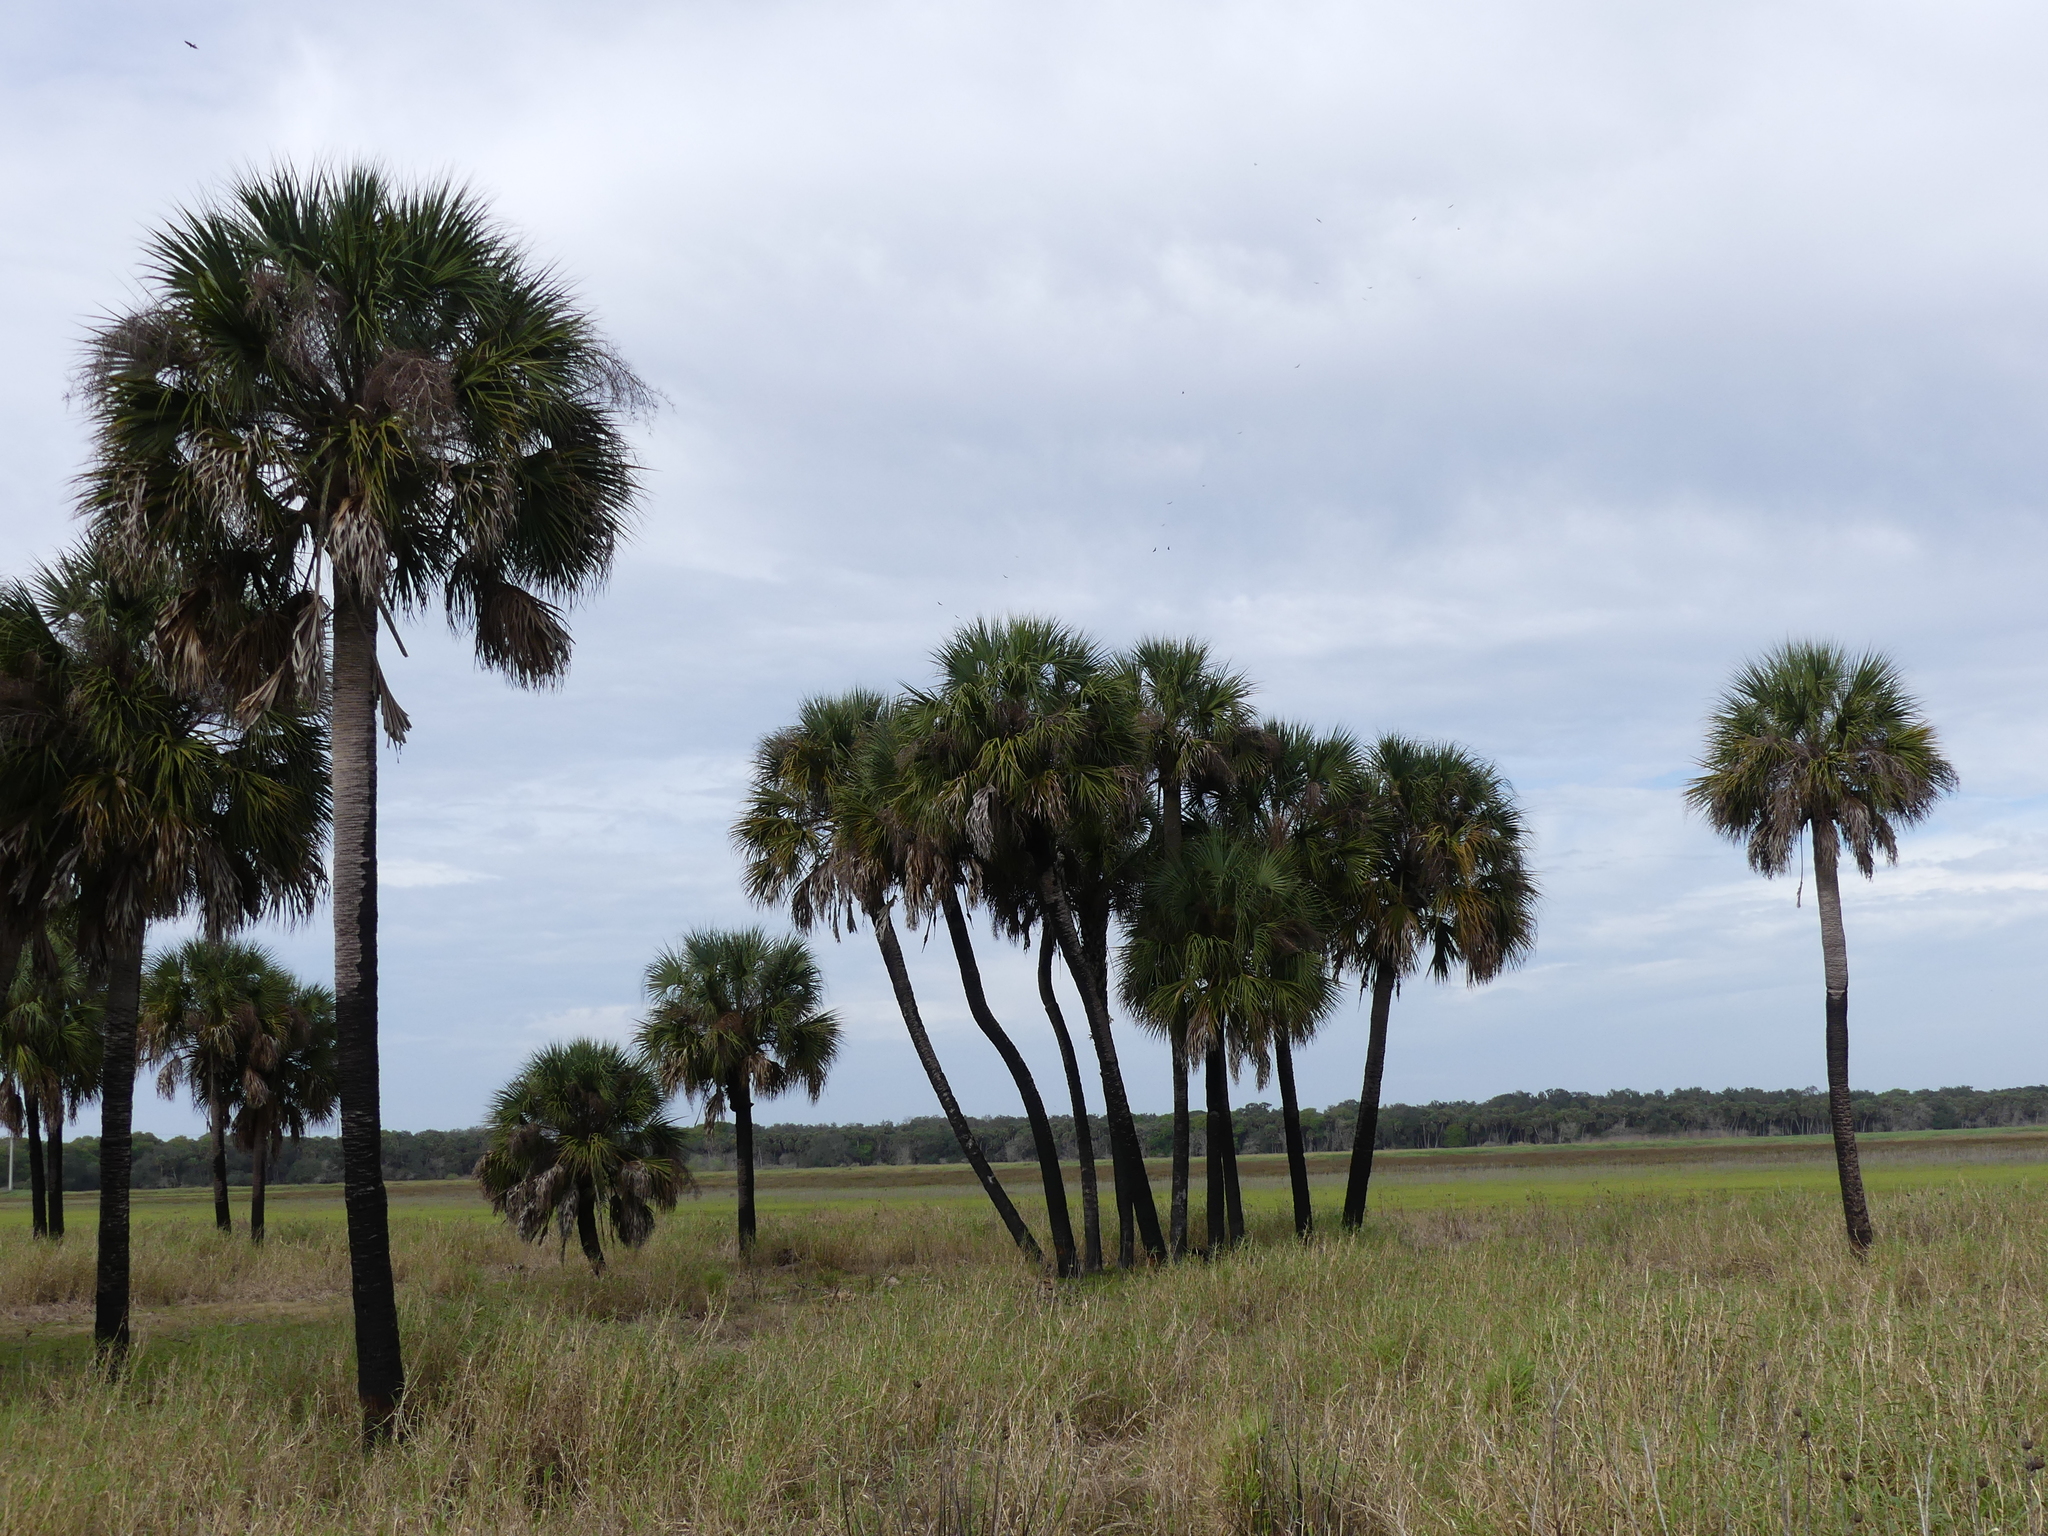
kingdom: Plantae
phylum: Tracheophyta
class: Liliopsida
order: Arecales
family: Arecaceae
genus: Sabal
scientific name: Sabal palmetto
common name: Blue palmetto
